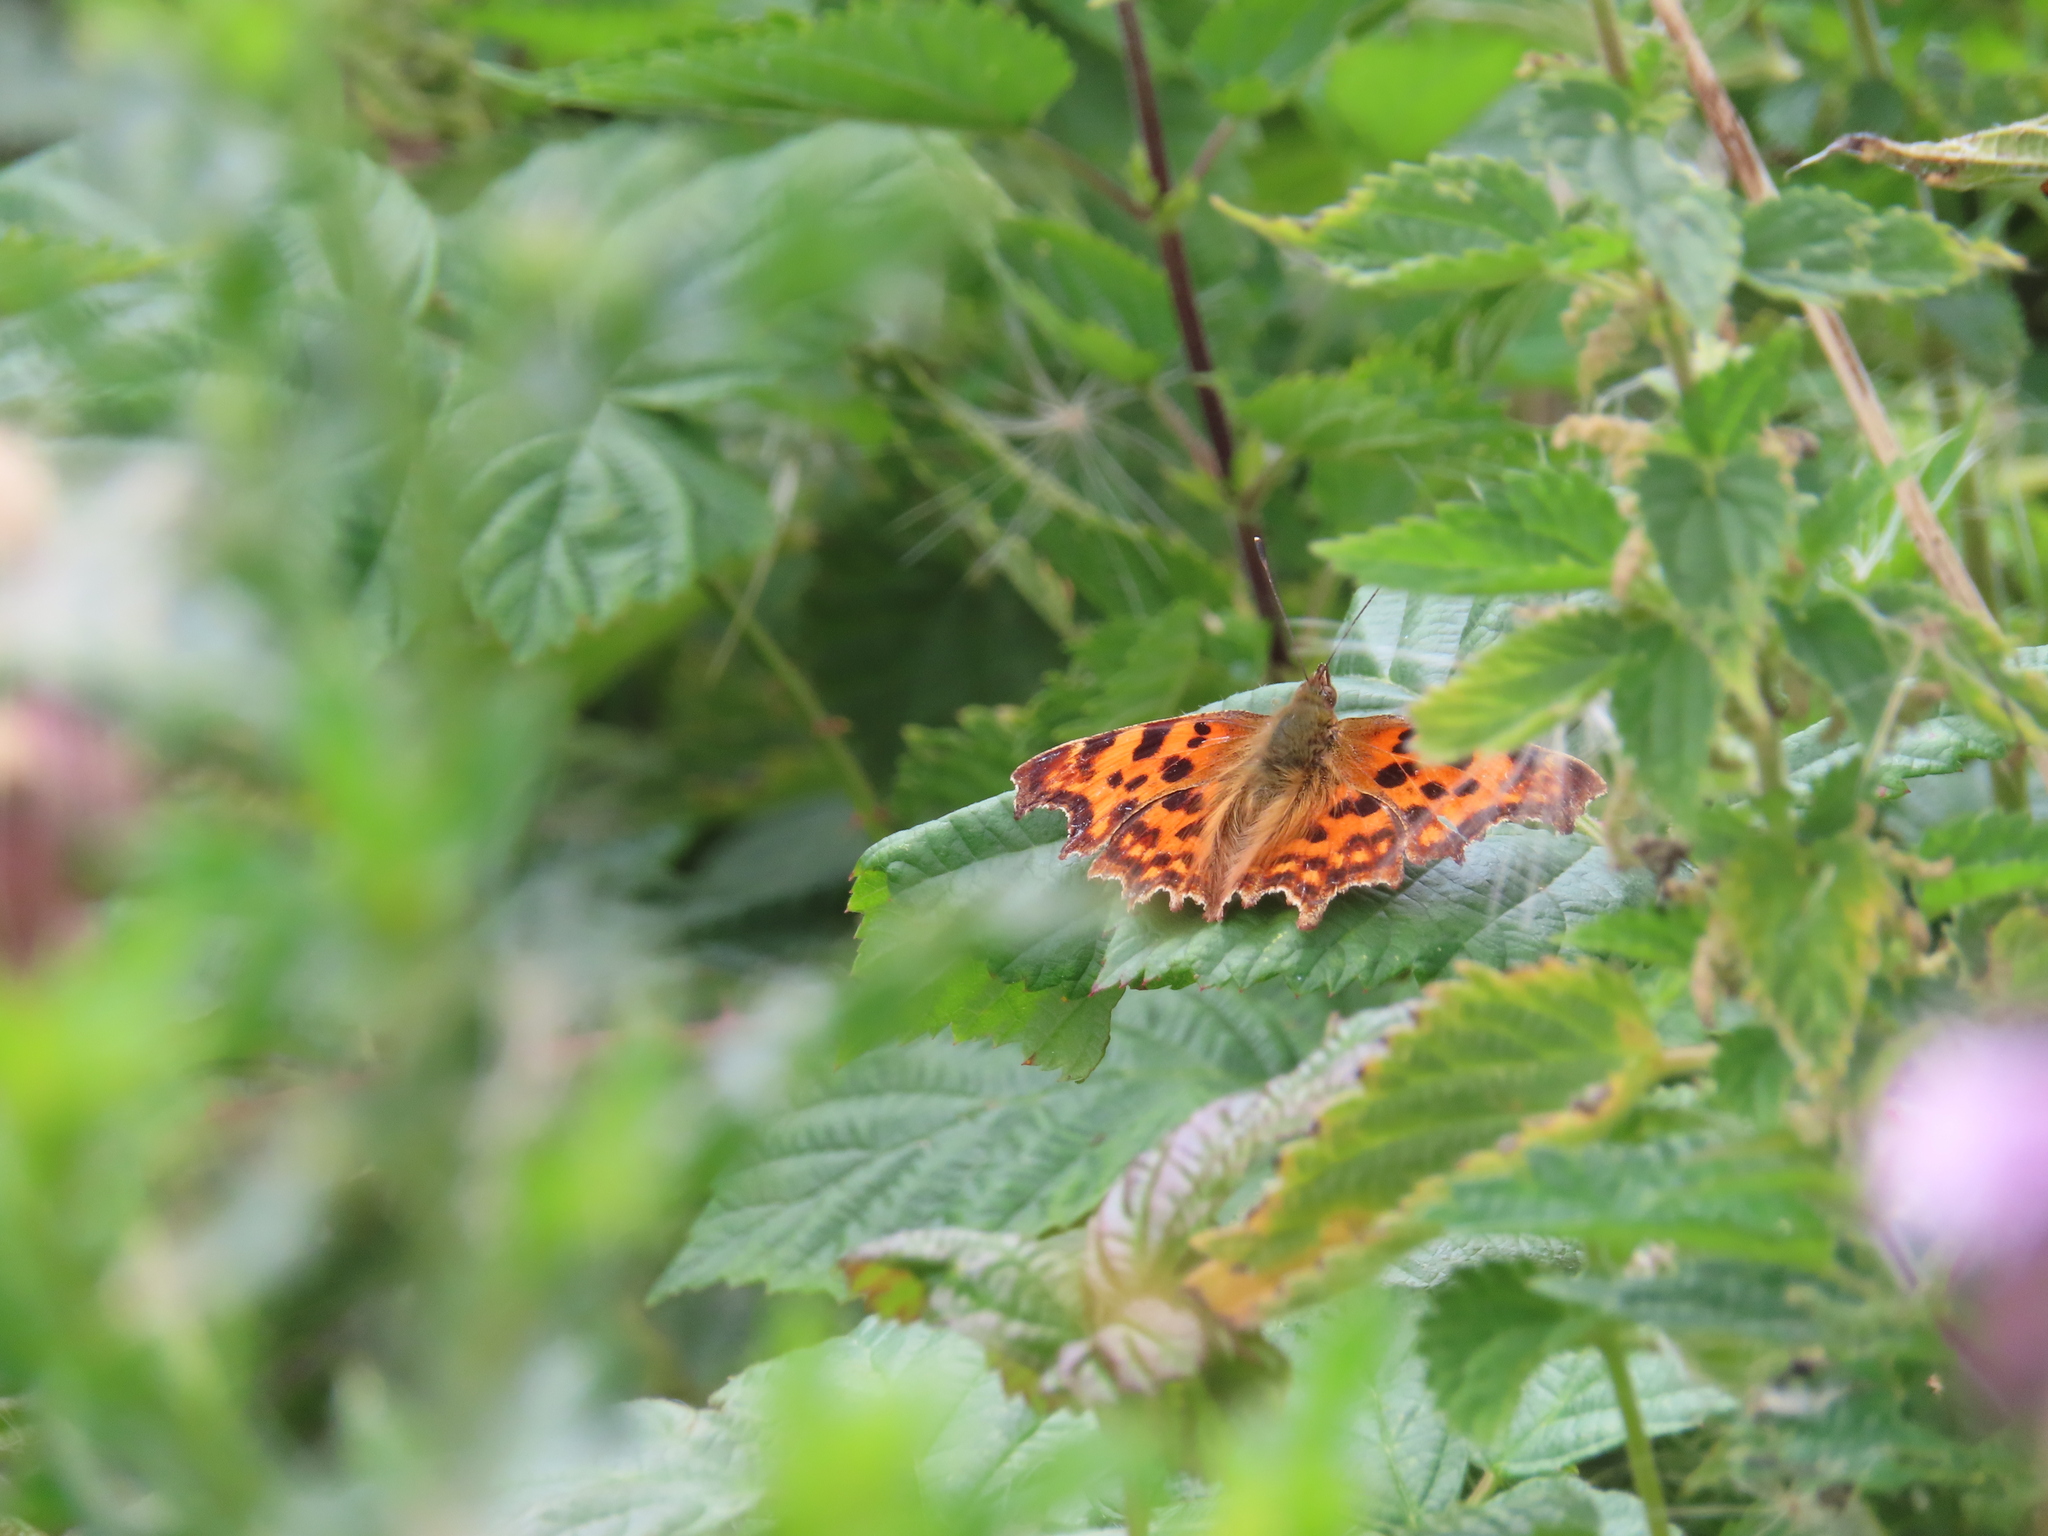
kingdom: Animalia
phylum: Arthropoda
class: Insecta
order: Lepidoptera
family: Nymphalidae
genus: Polygonia
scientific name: Polygonia c-album
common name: Comma
